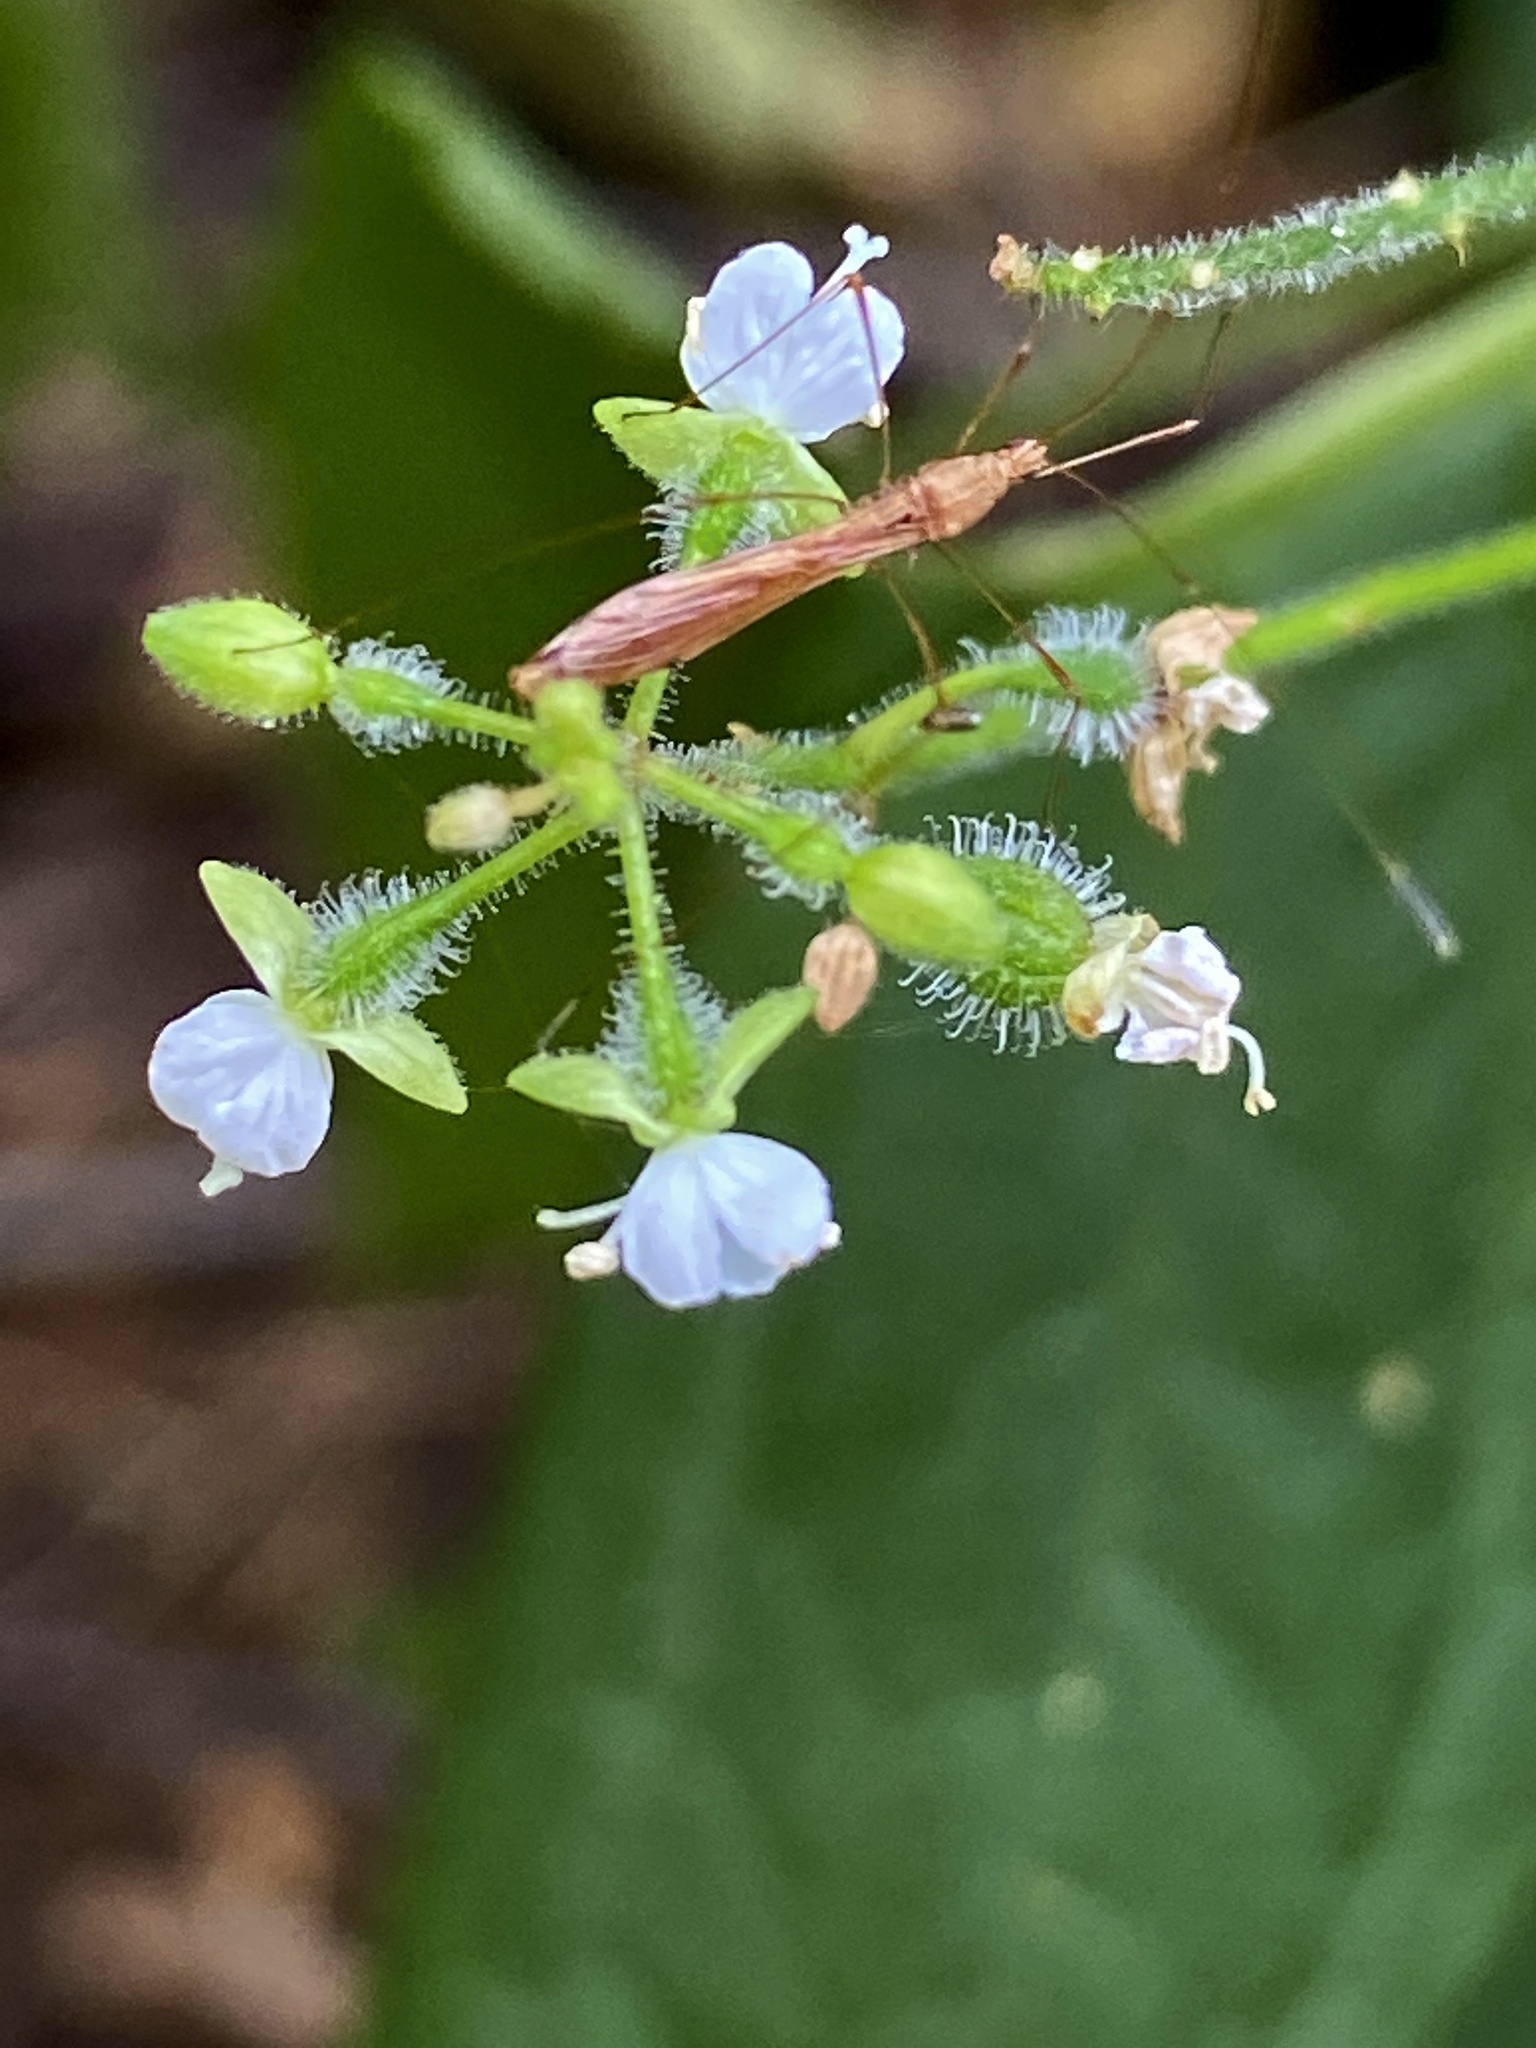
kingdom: Plantae
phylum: Tracheophyta
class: Magnoliopsida
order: Myrtales
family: Onagraceae
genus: Circaea
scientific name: Circaea canadensis
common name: Broad-leaved enchanter's nightshade
